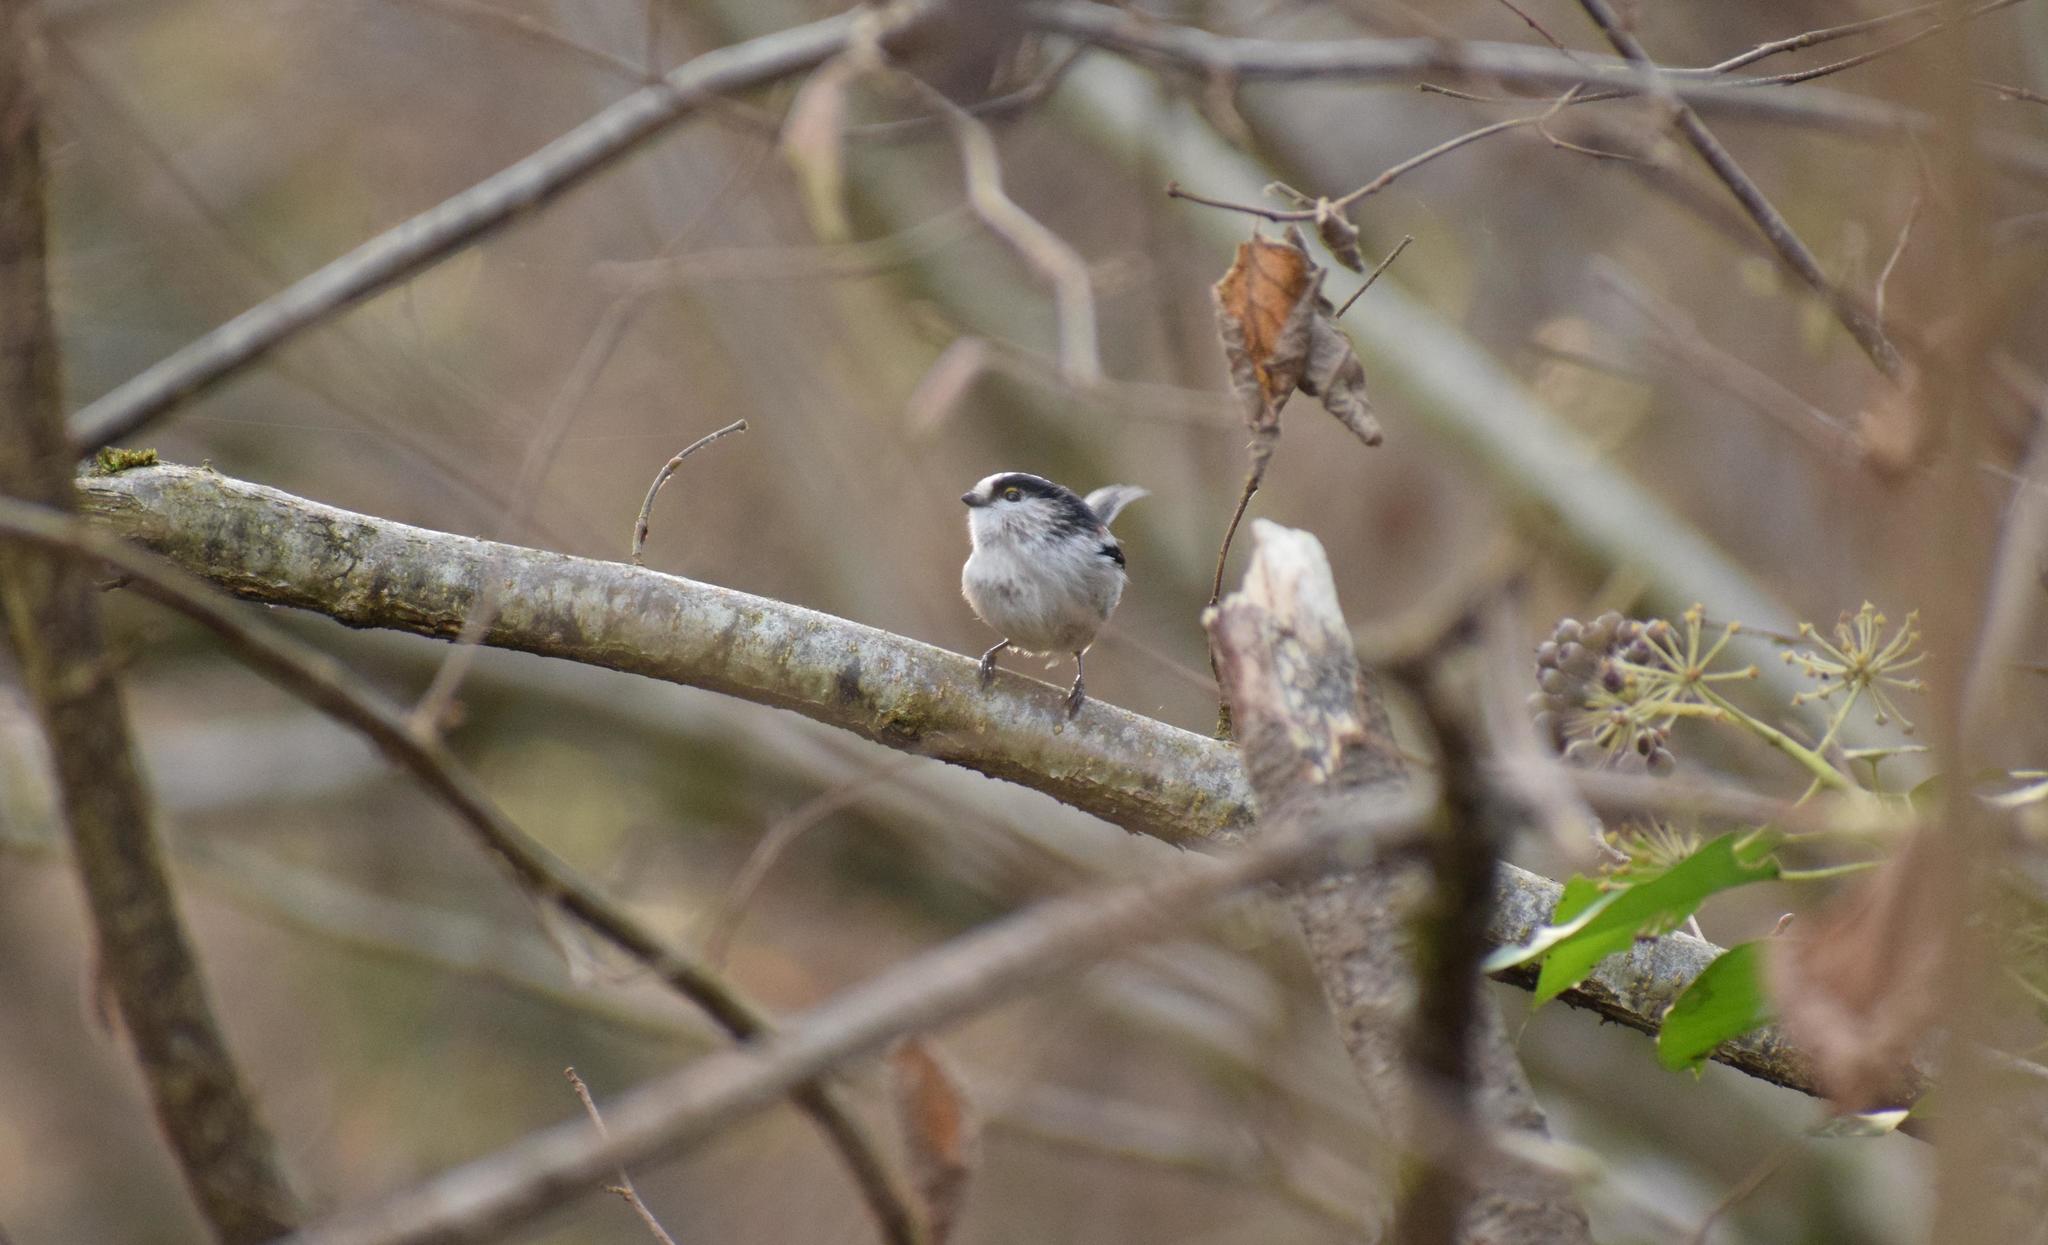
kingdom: Animalia
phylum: Chordata
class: Aves
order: Passeriformes
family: Aegithalidae
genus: Aegithalos
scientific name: Aegithalos caudatus
